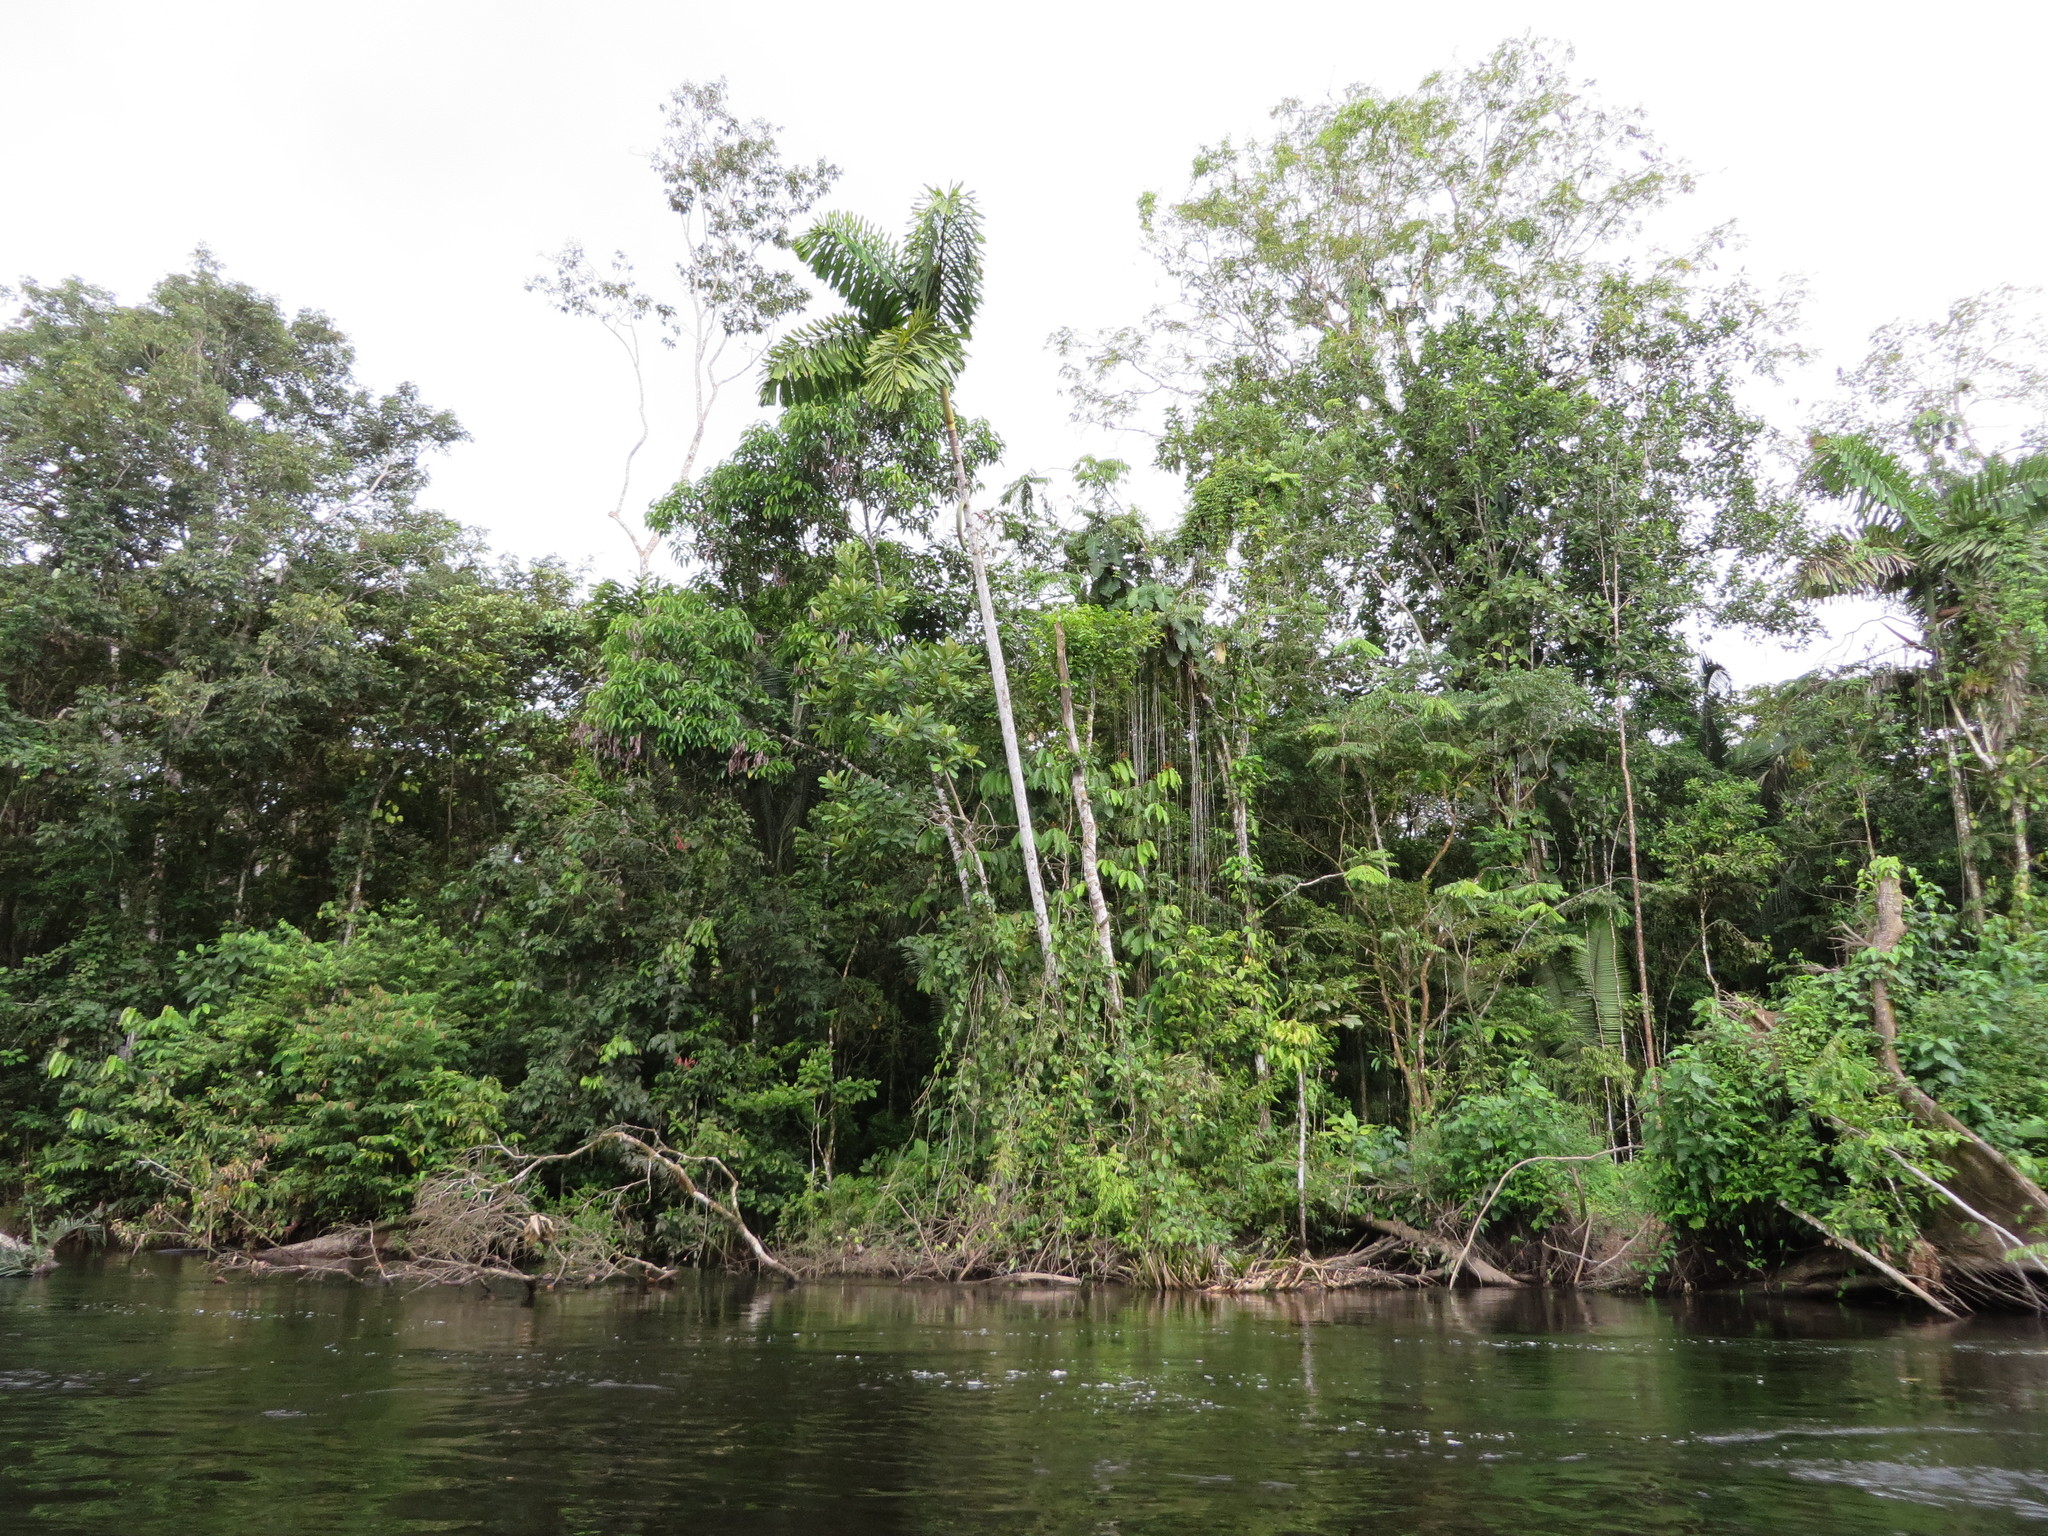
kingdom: Plantae
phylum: Tracheophyta
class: Liliopsida
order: Arecales
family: Arecaceae
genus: Iriartea
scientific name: Iriartea deltoidea
